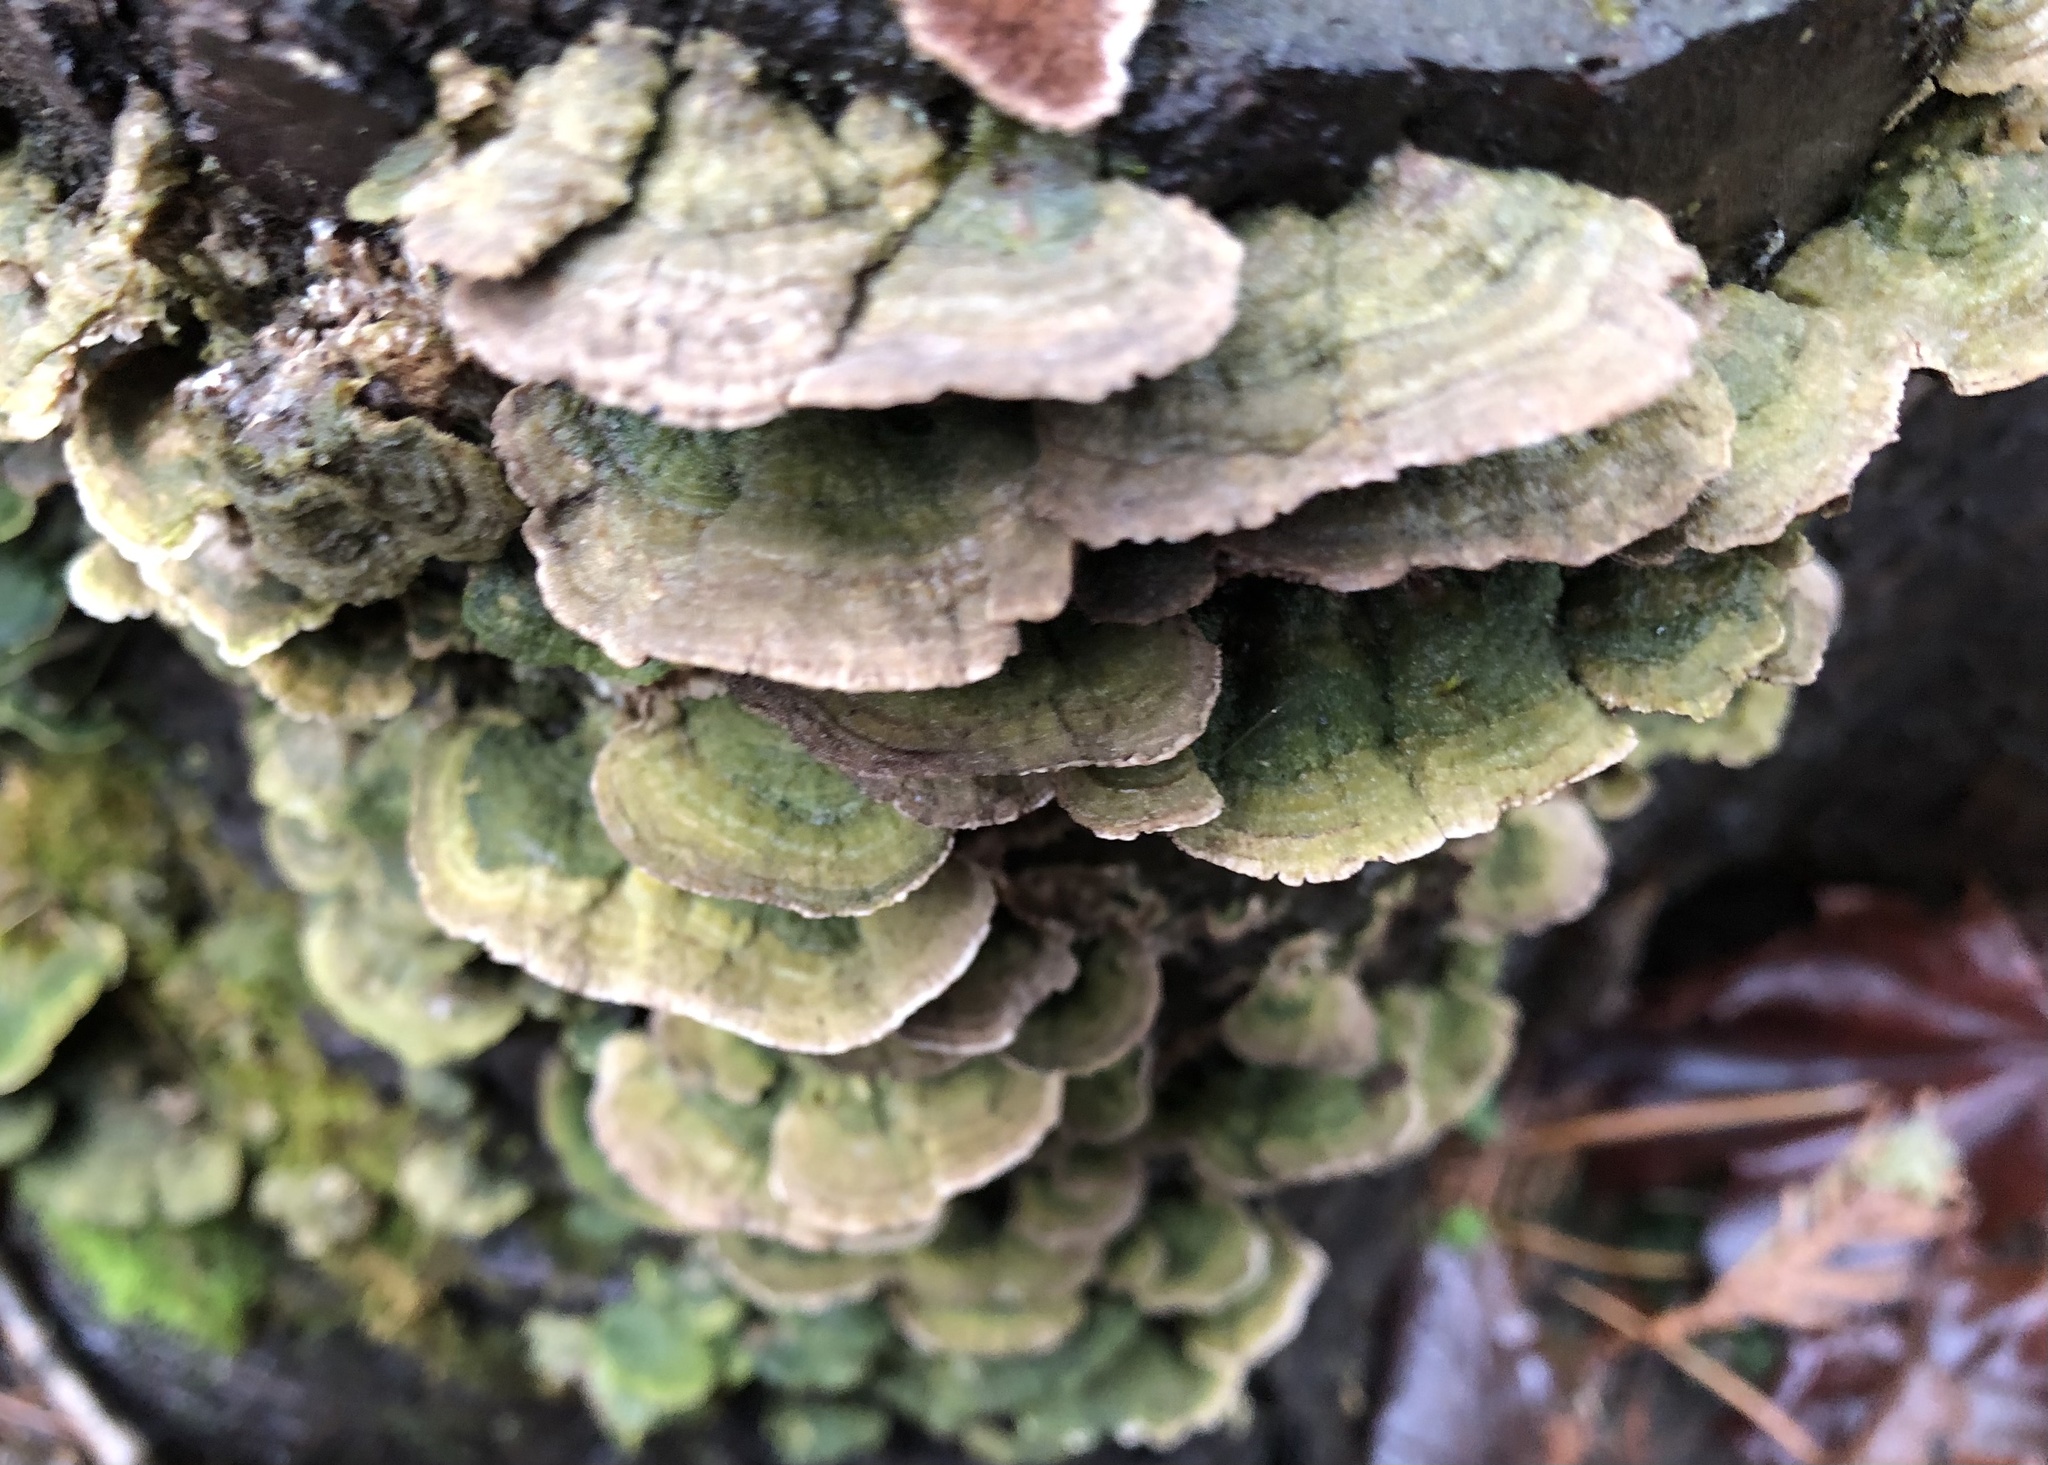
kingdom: Fungi
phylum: Basidiomycota
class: Agaricomycetes
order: Hymenochaetales
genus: Trichaptum
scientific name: Trichaptum abietinum
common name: Purplepore bracket
